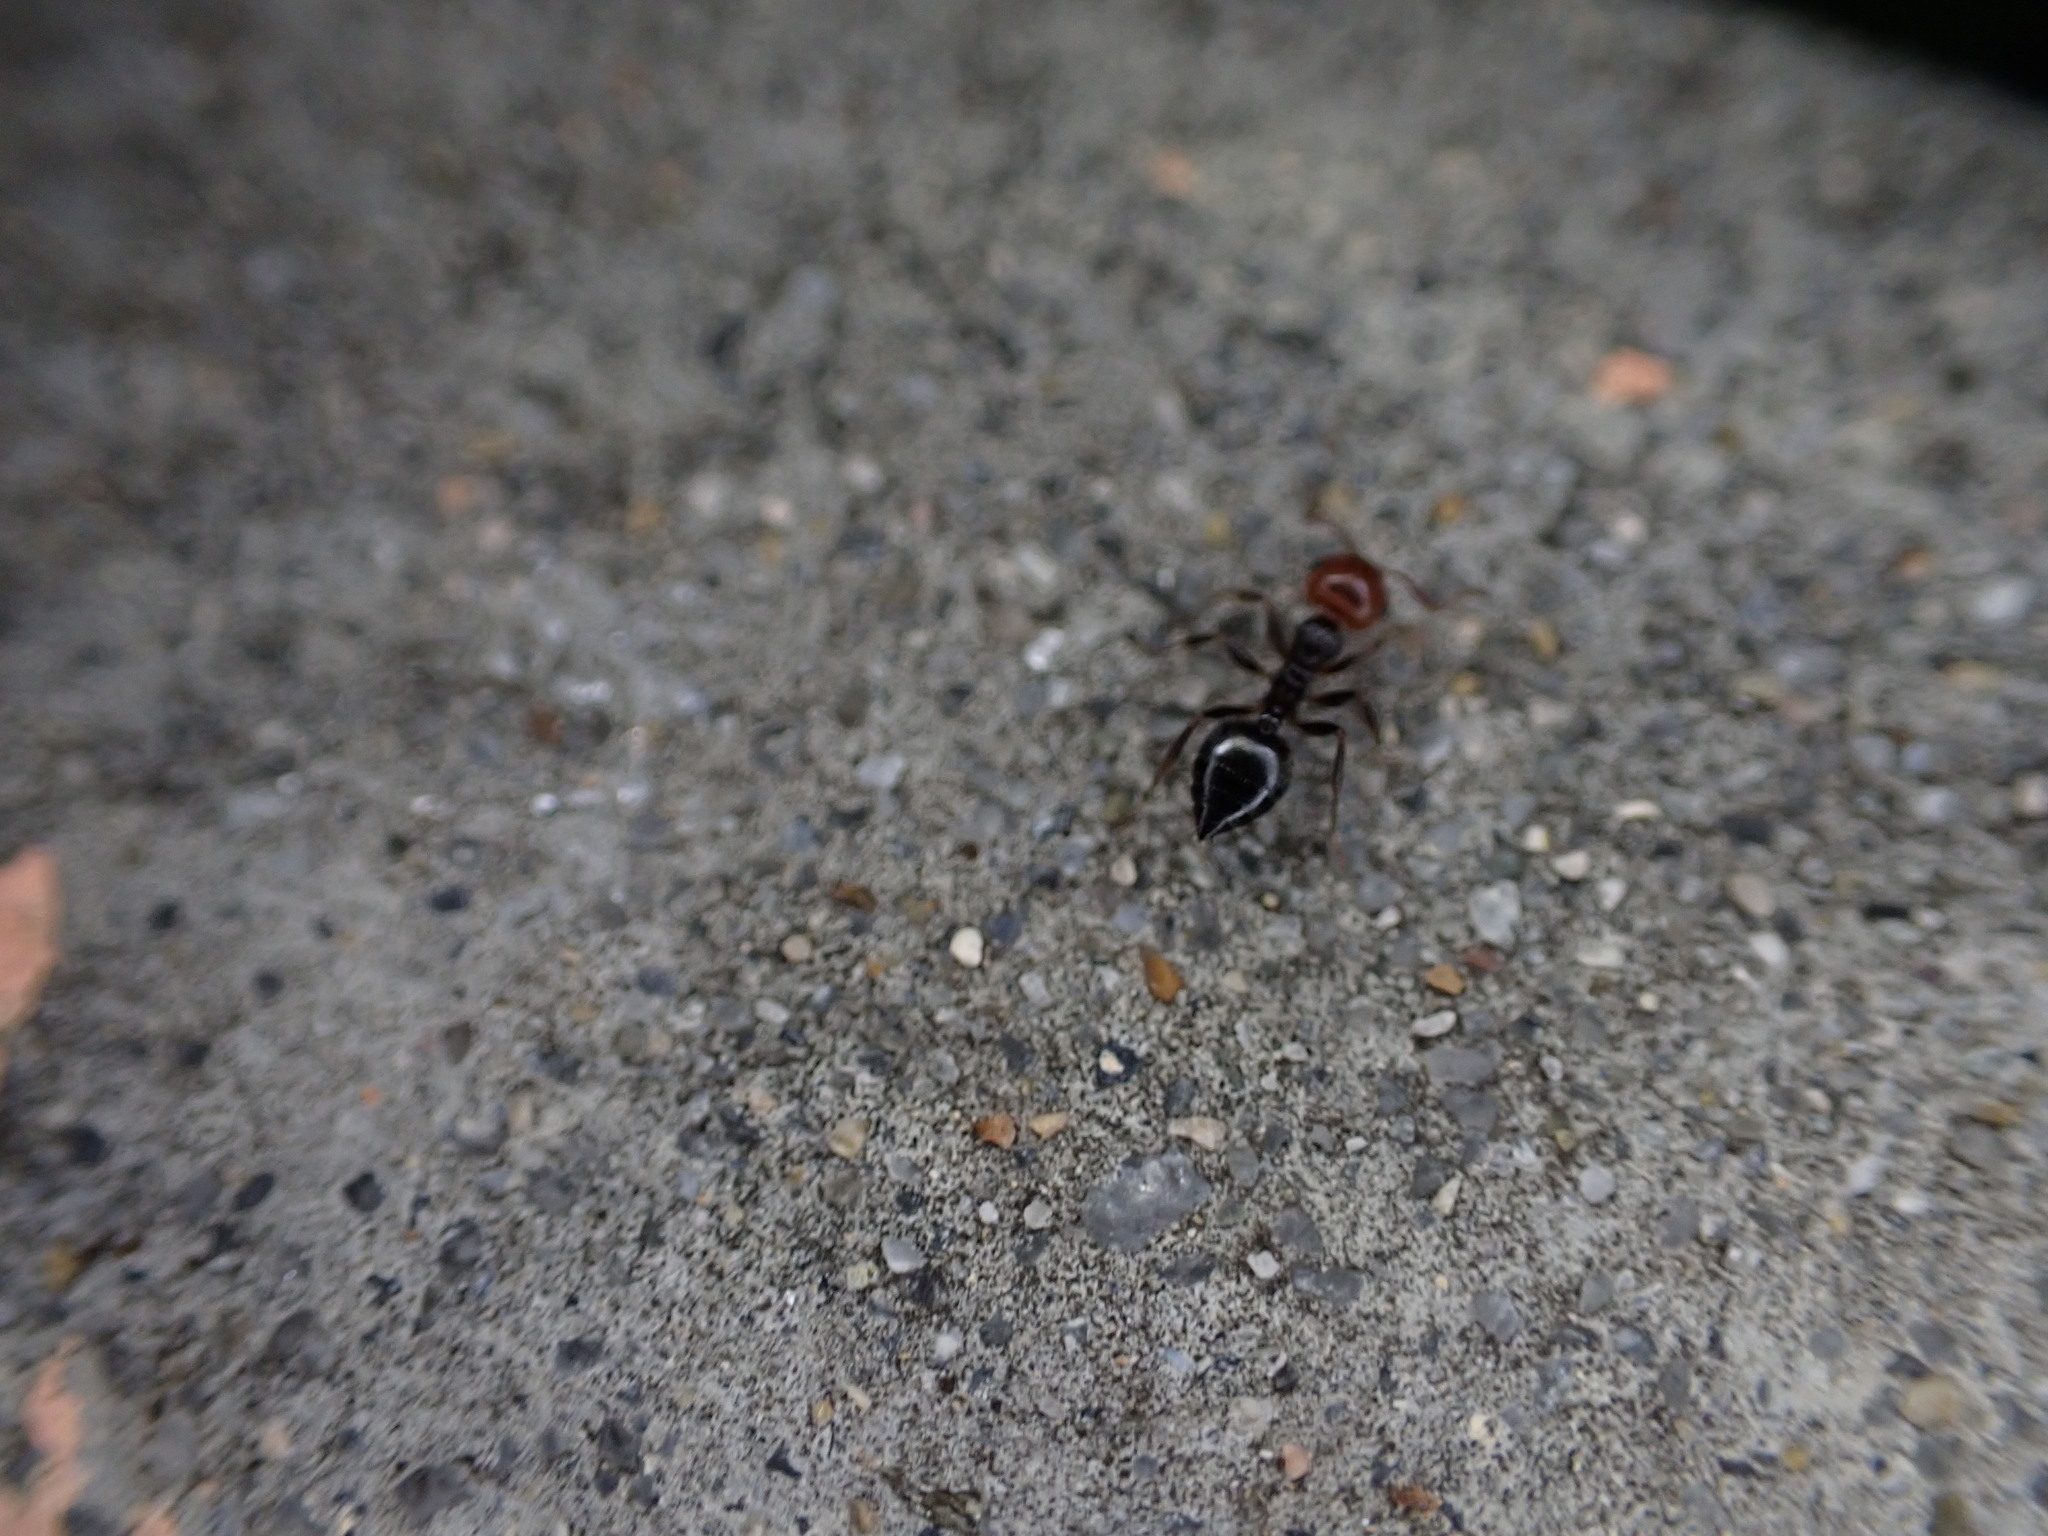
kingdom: Animalia
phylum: Arthropoda
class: Insecta
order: Hymenoptera
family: Formicidae
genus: Crematogaster
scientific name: Crematogaster scutellaris
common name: Fourmi du liège
